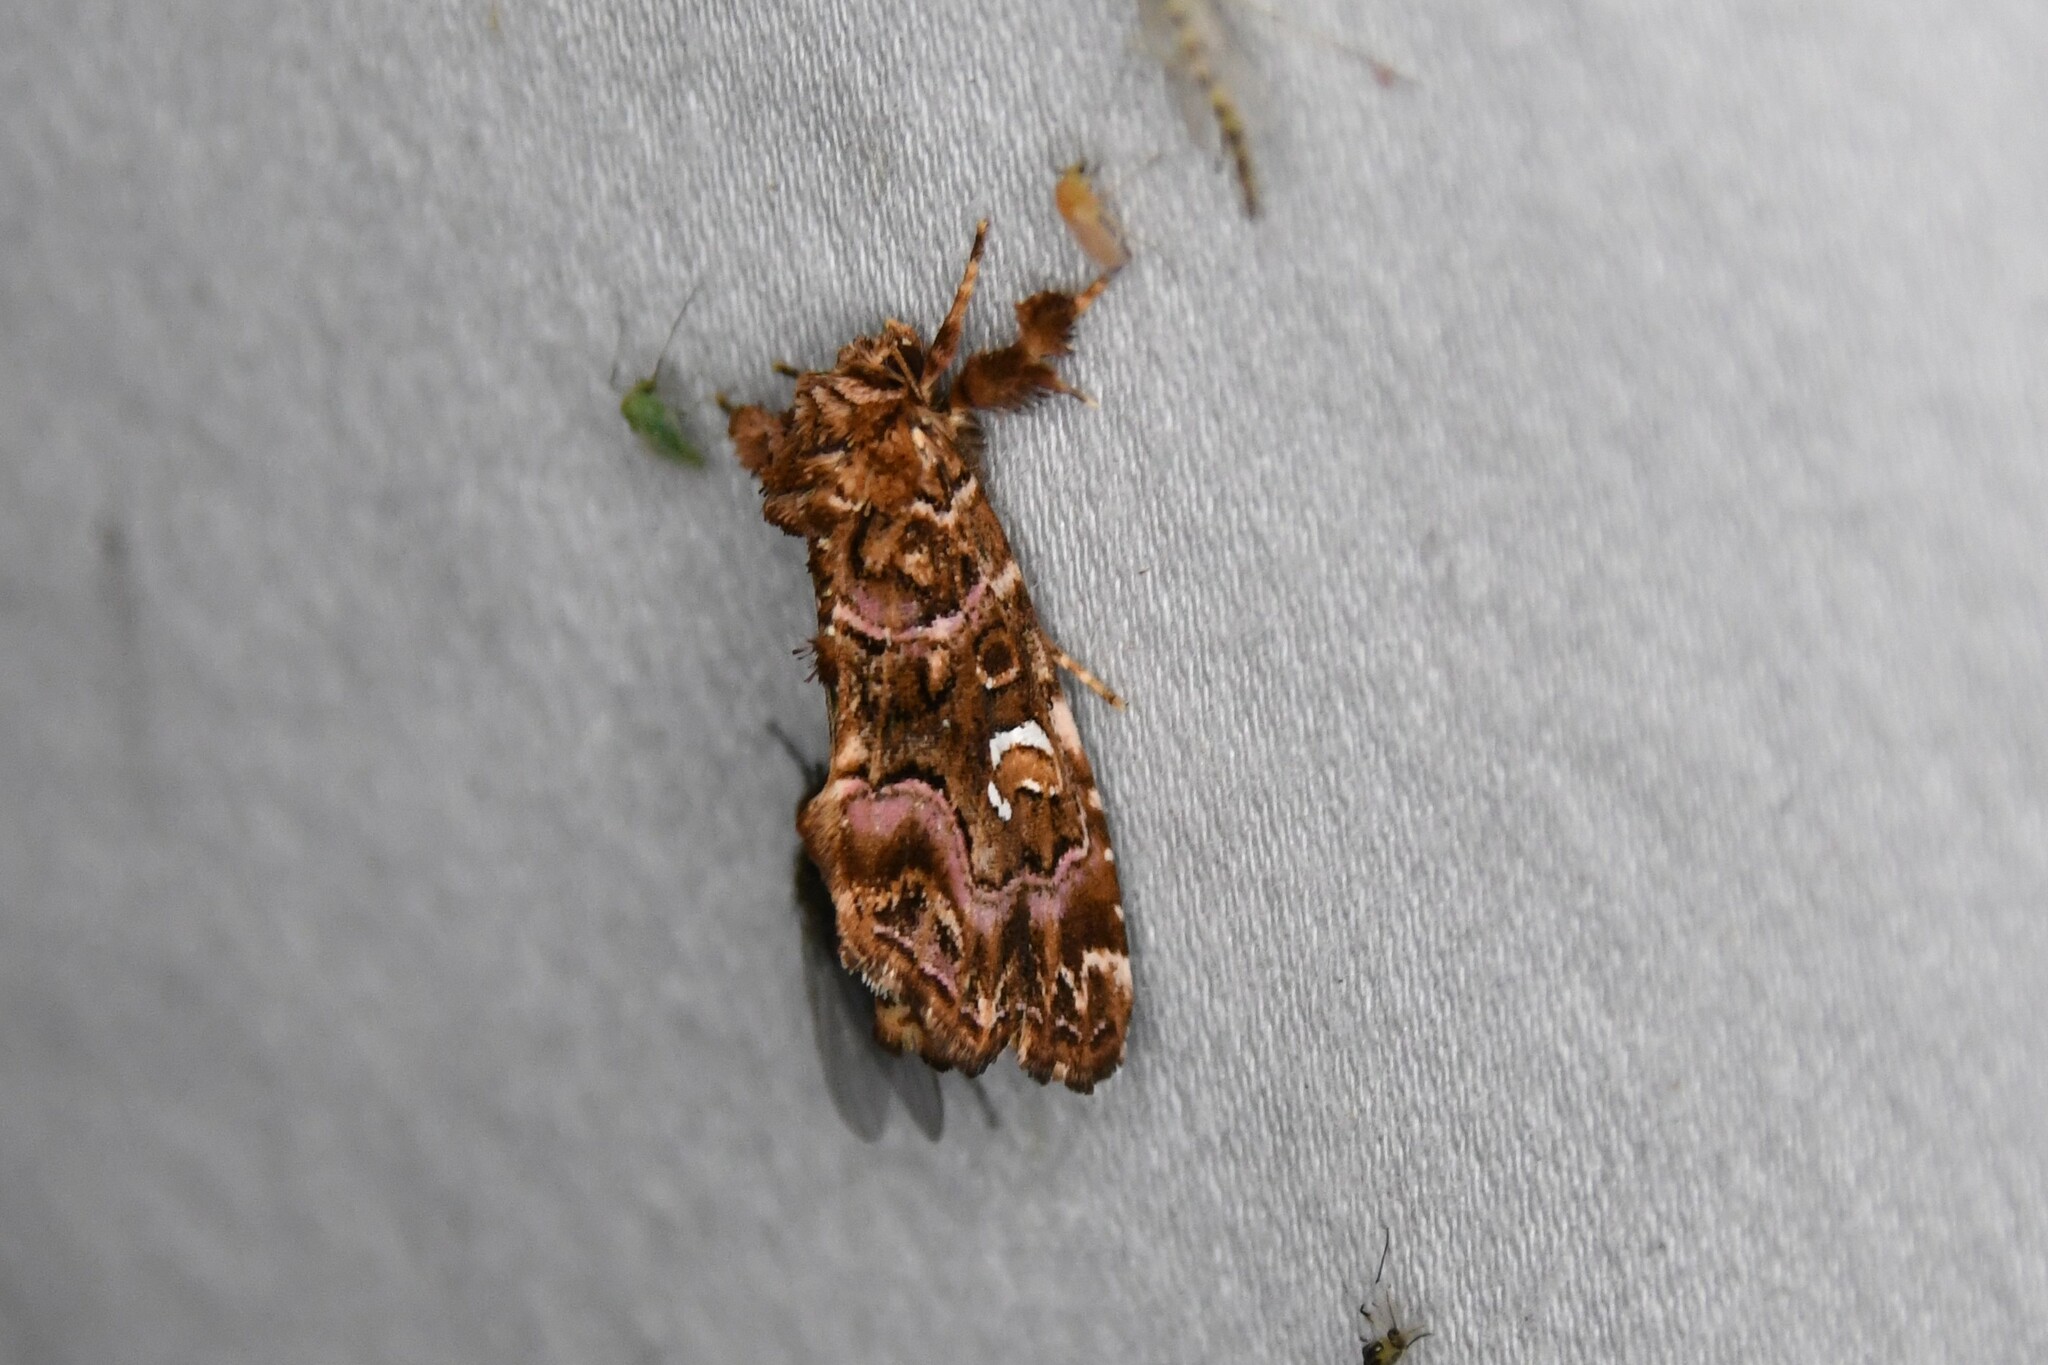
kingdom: Animalia
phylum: Arthropoda
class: Insecta
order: Lepidoptera
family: Noctuidae
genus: Callopistria
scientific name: Callopistria mollissima
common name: Pink-shaded fern moth
